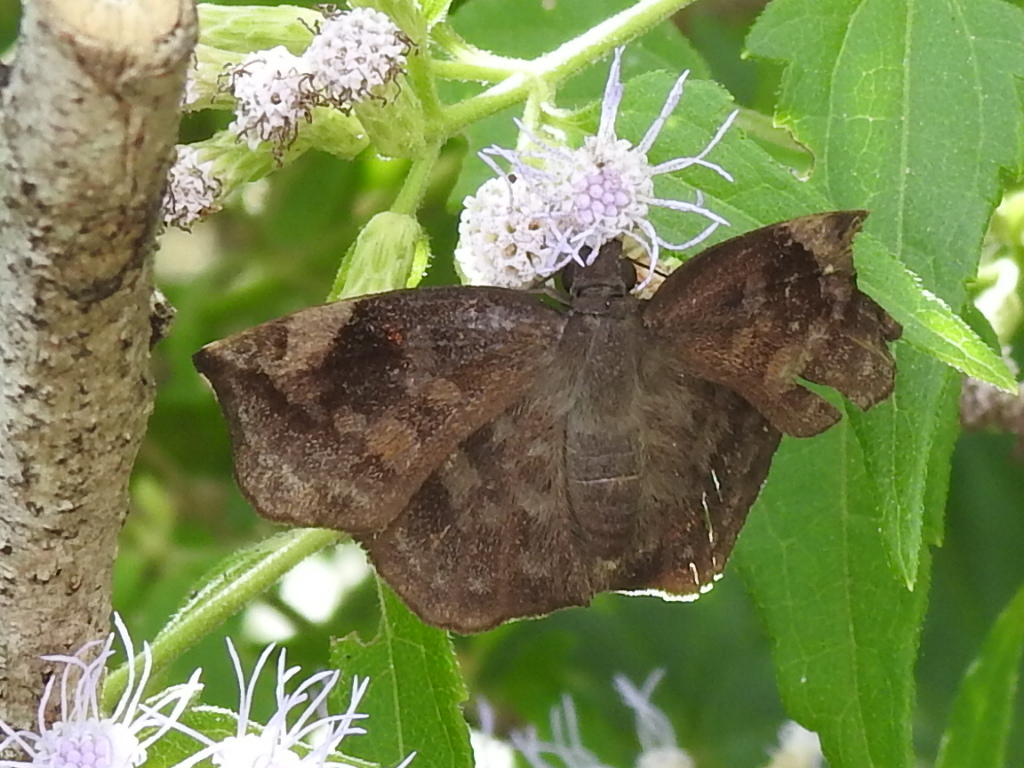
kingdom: Animalia
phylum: Arthropoda
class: Insecta
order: Lepidoptera
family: Hesperiidae
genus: Achlyodes
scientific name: Achlyodes thraso
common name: Sickle-winged skipper
